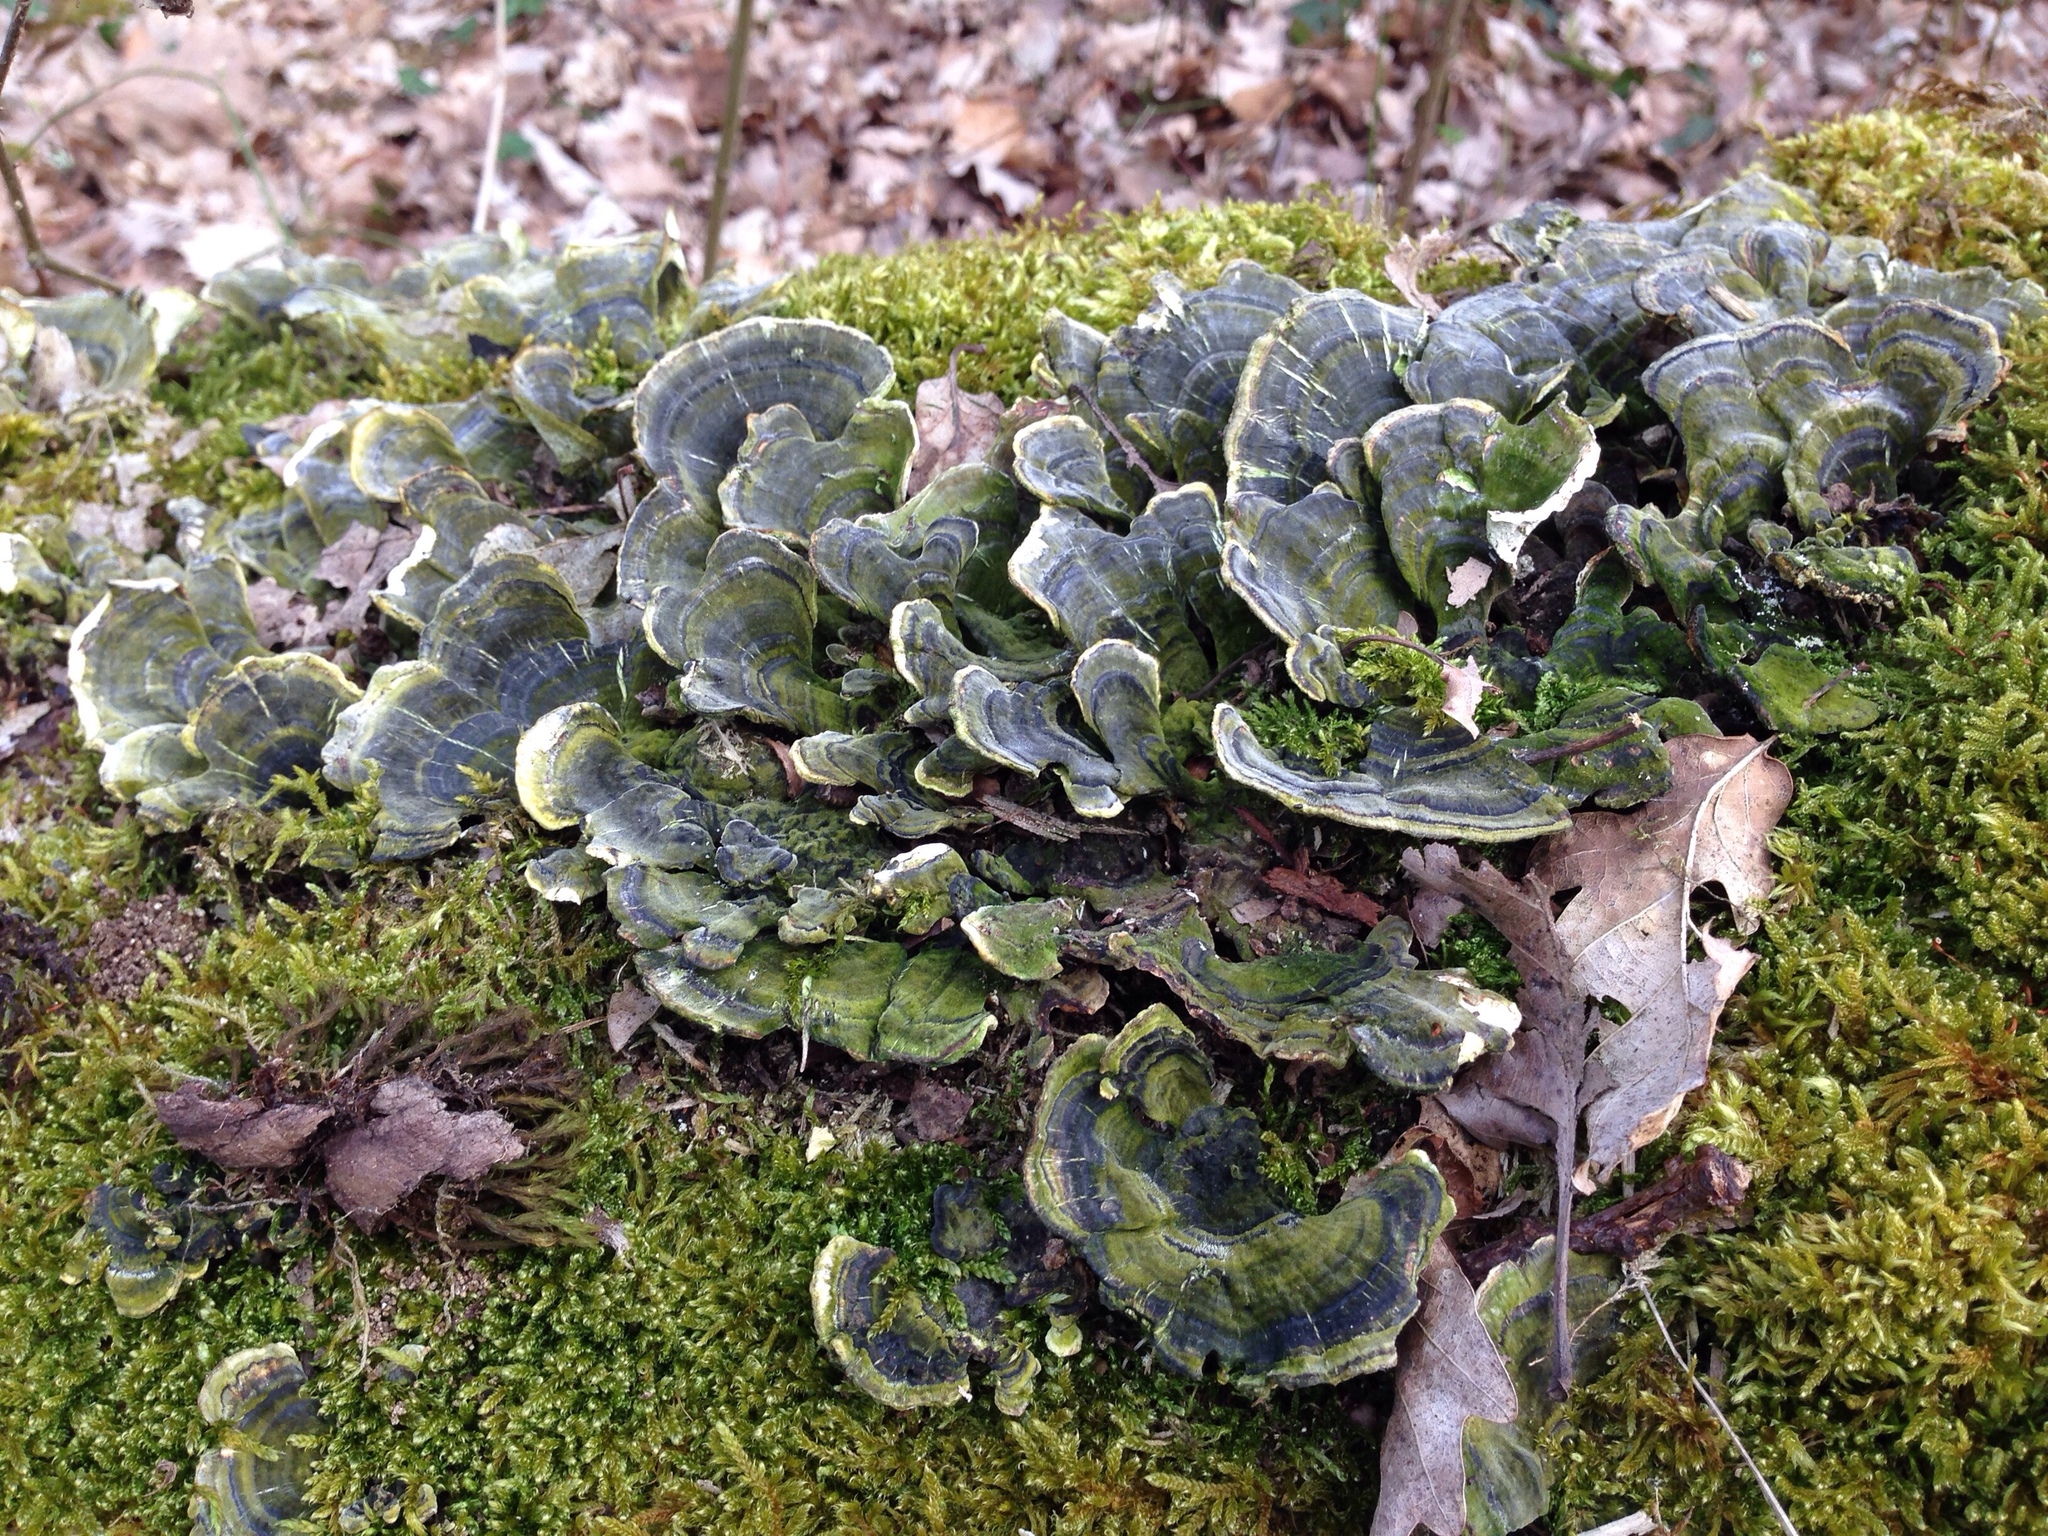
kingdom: Fungi
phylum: Basidiomycota
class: Agaricomycetes
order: Polyporales
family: Polyporaceae
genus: Trametes
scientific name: Trametes versicolor
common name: Turkeytail
